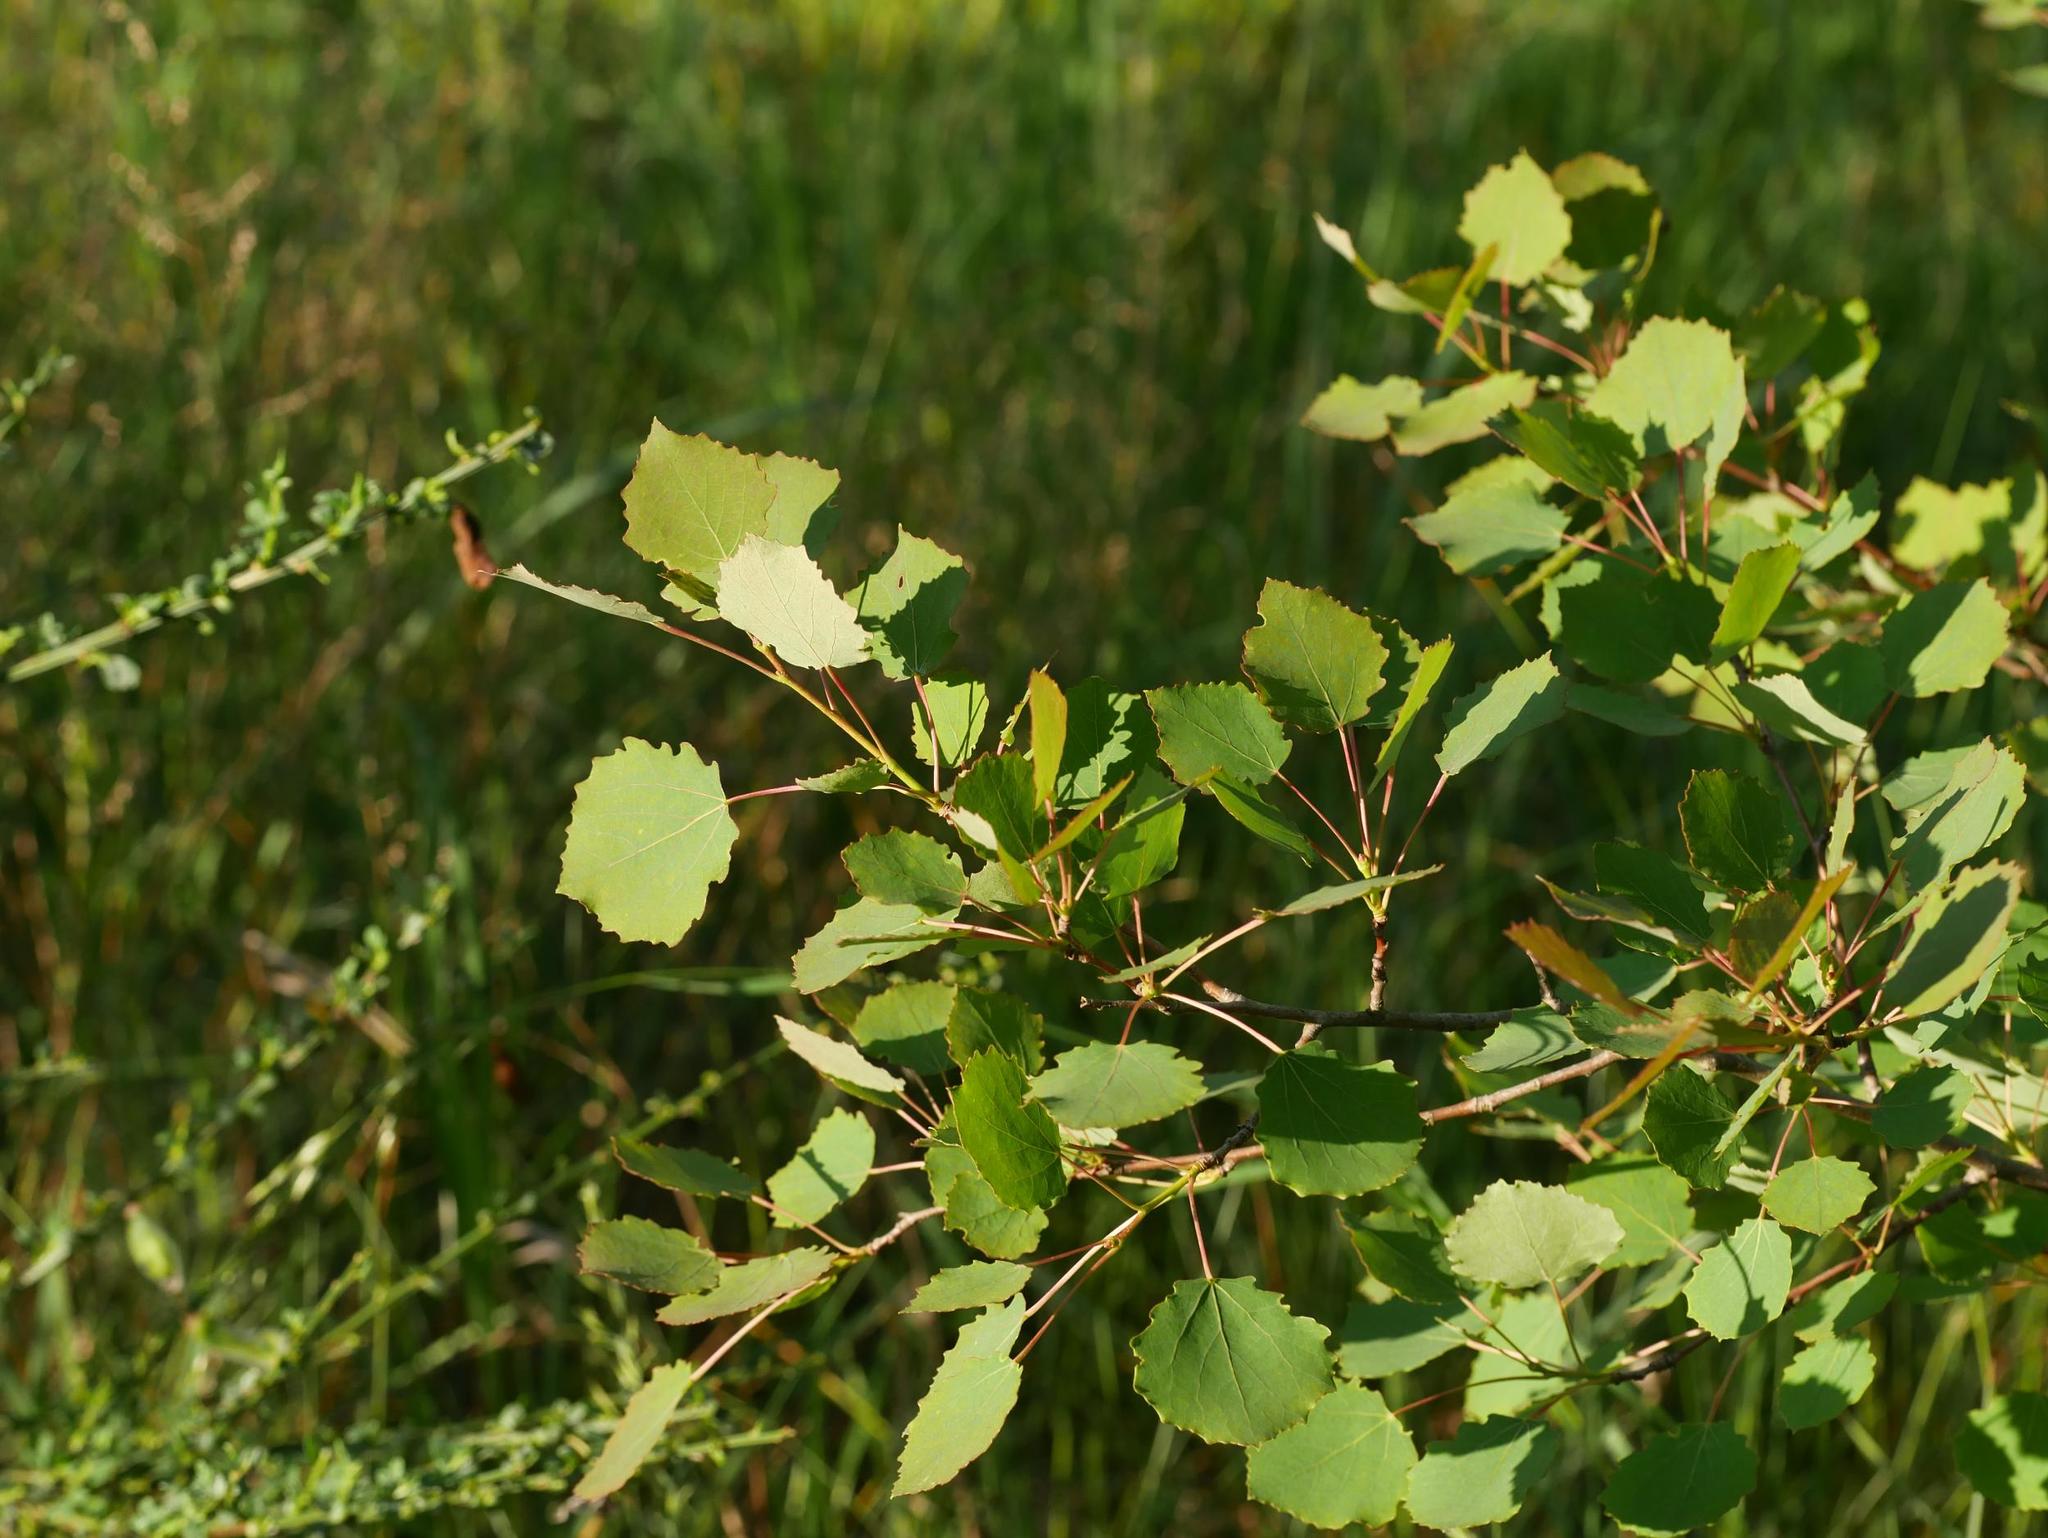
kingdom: Plantae
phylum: Tracheophyta
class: Magnoliopsida
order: Malpighiales
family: Salicaceae
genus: Populus
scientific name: Populus tremula
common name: European aspen
